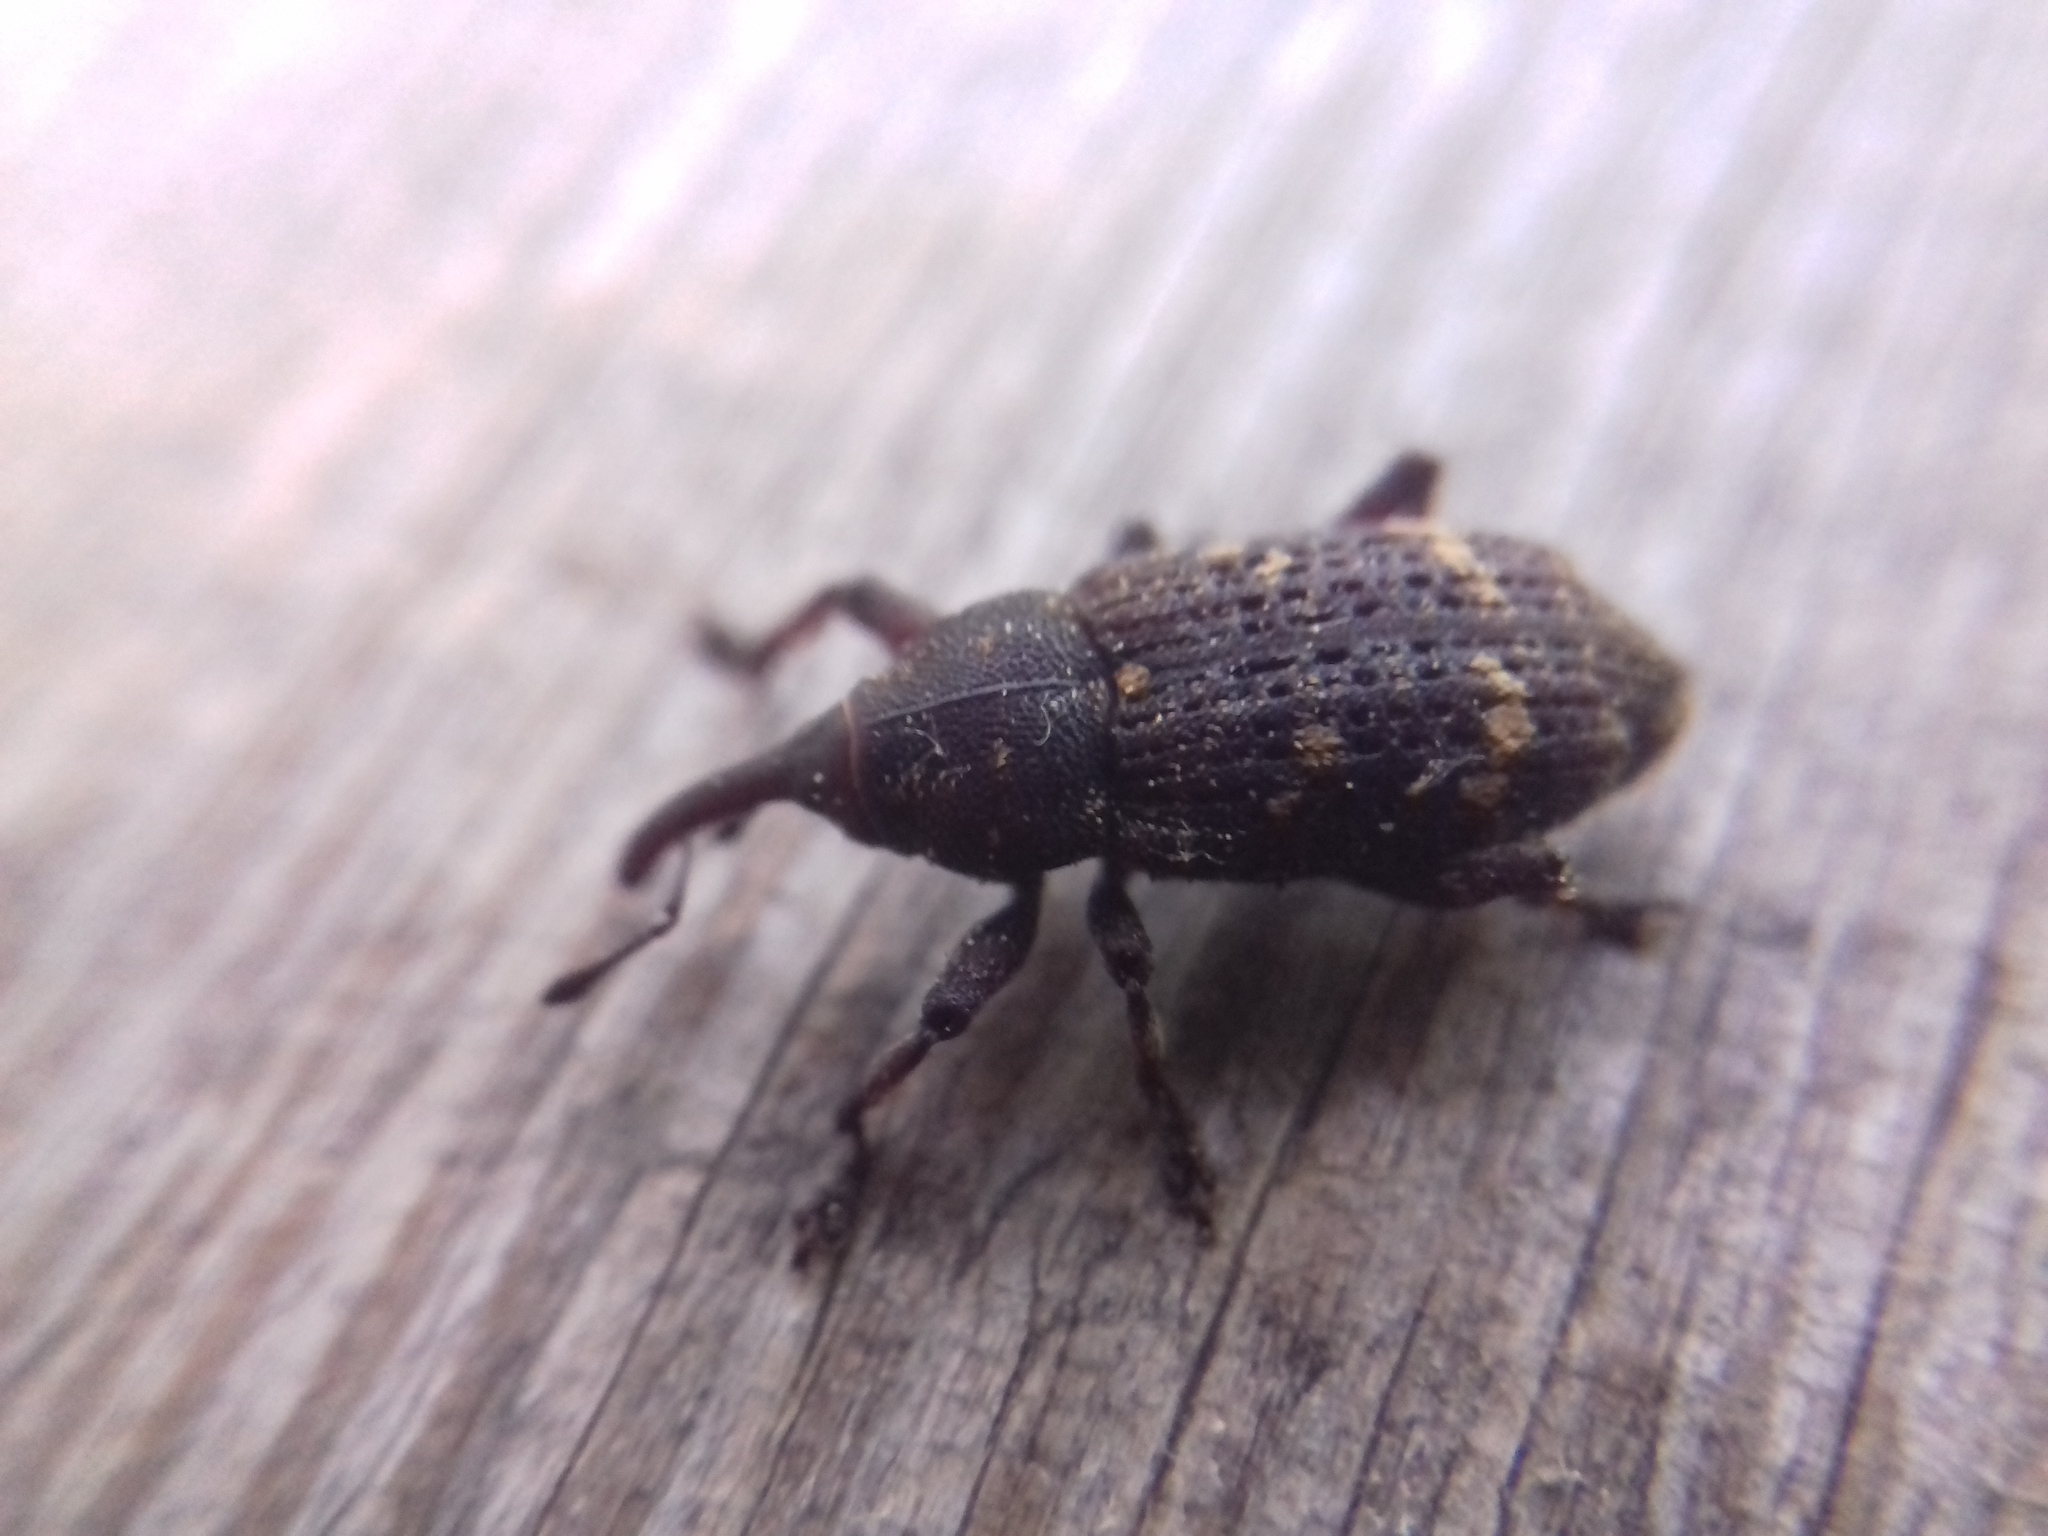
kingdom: Animalia
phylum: Arthropoda
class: Insecta
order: Coleoptera
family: Curculionidae
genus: Pissodes
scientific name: Pissodes pini
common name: Banded pine weevil
